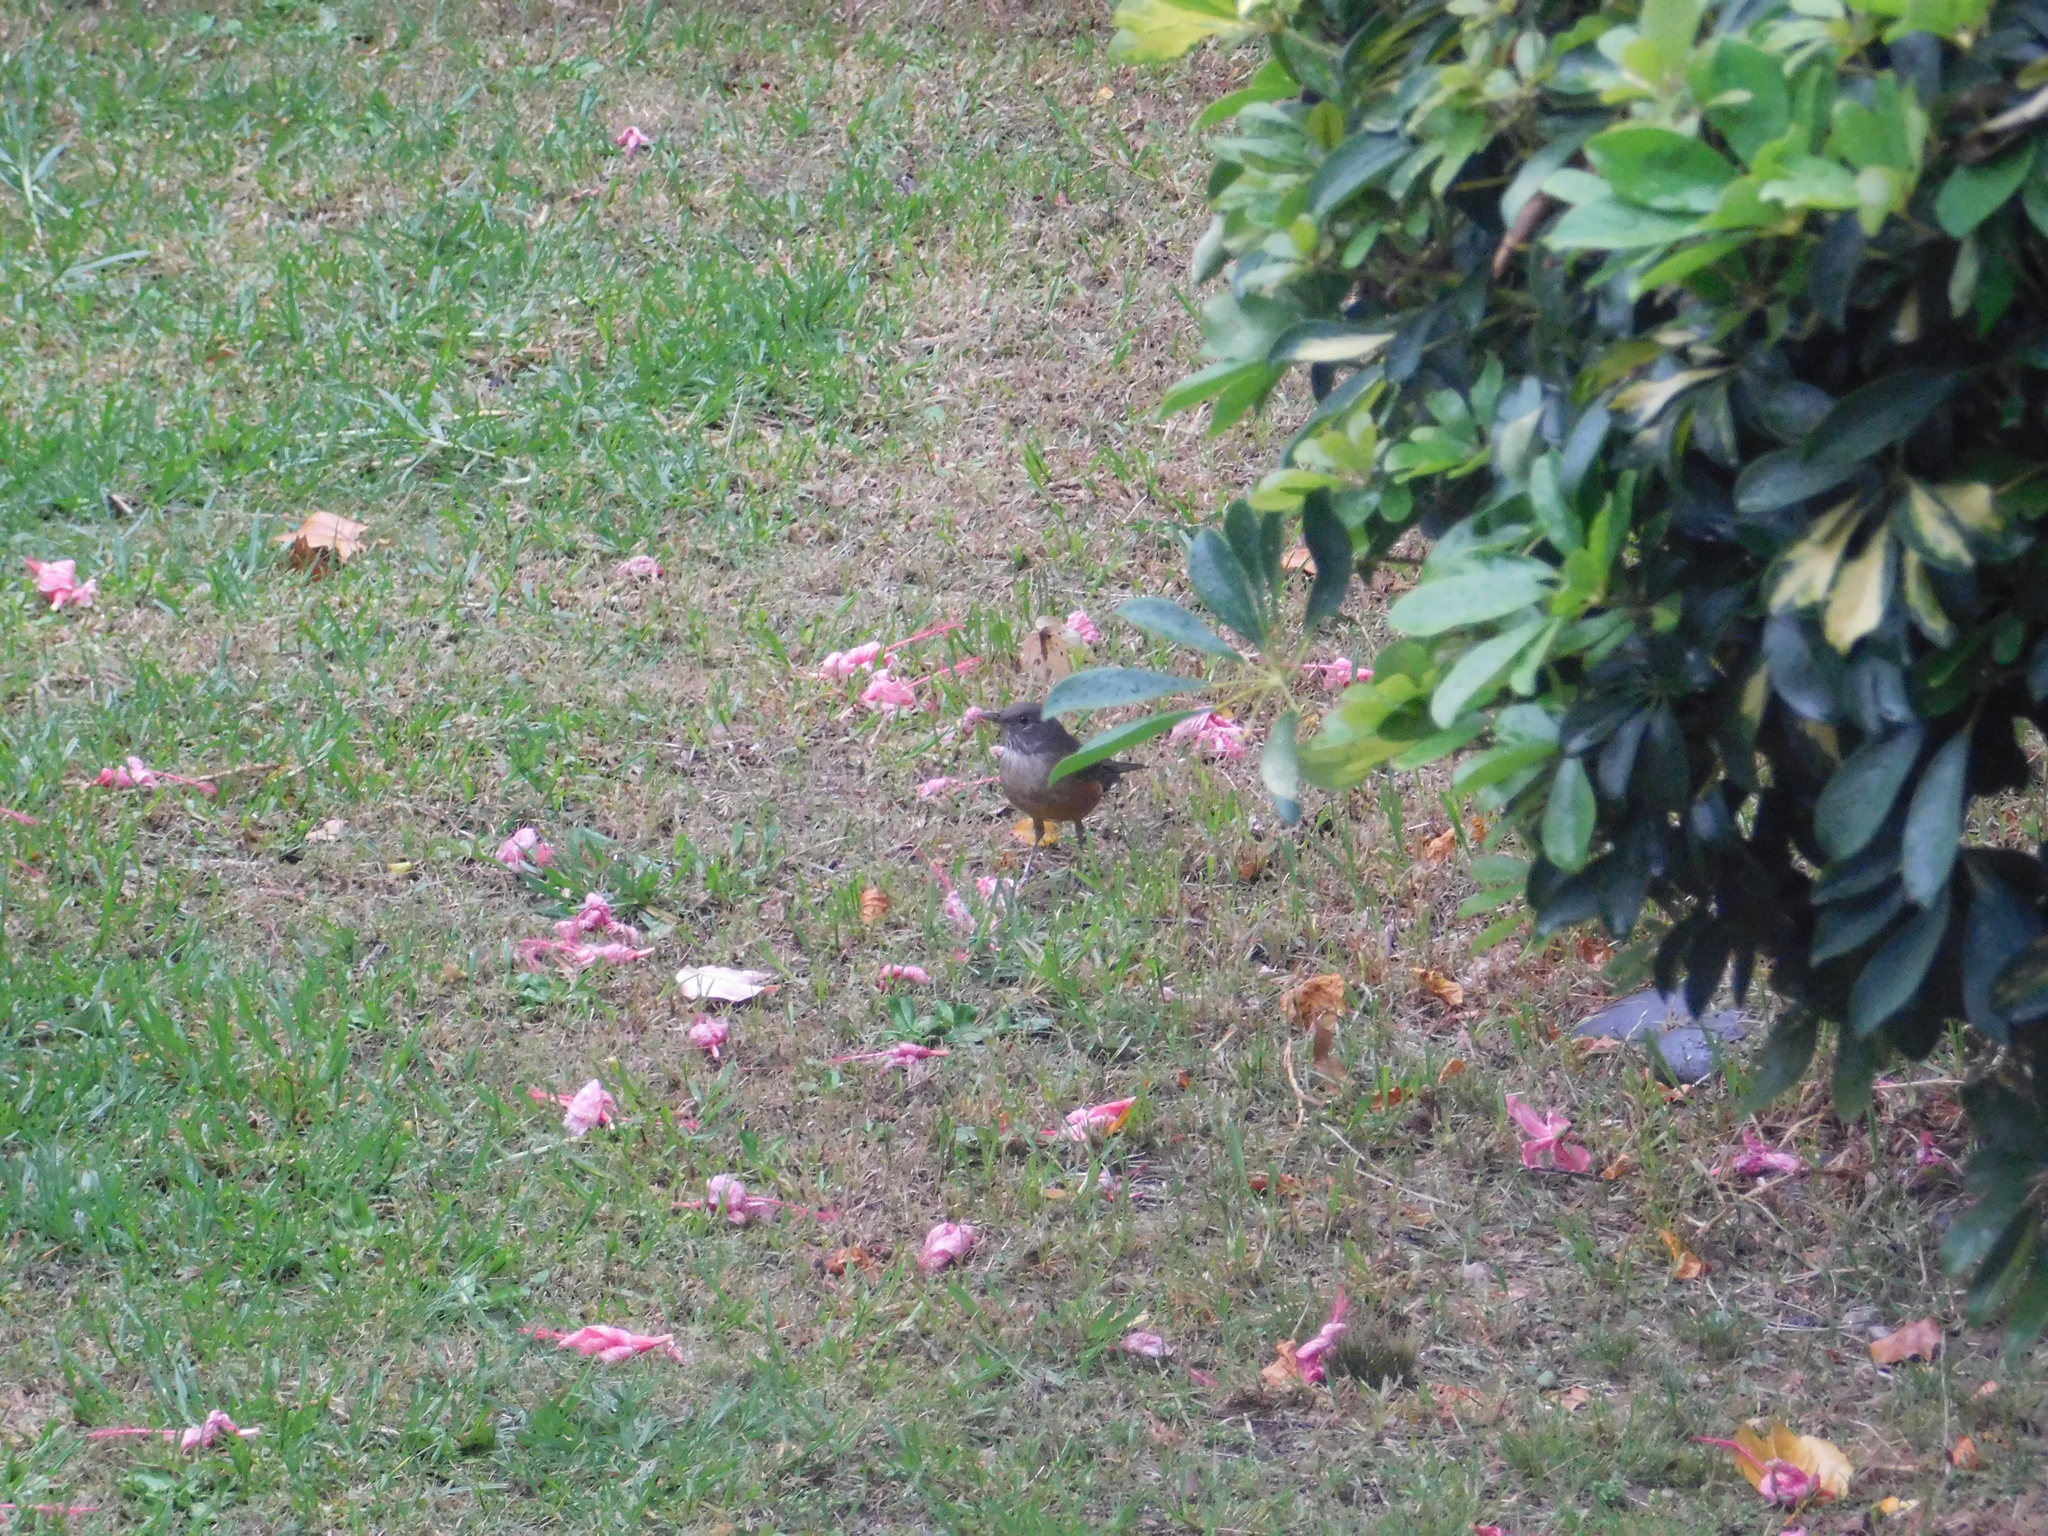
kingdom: Animalia
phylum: Chordata
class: Aves
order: Passeriformes
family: Turdidae
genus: Turdus
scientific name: Turdus rufiventris
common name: Rufous-bellied thrush
